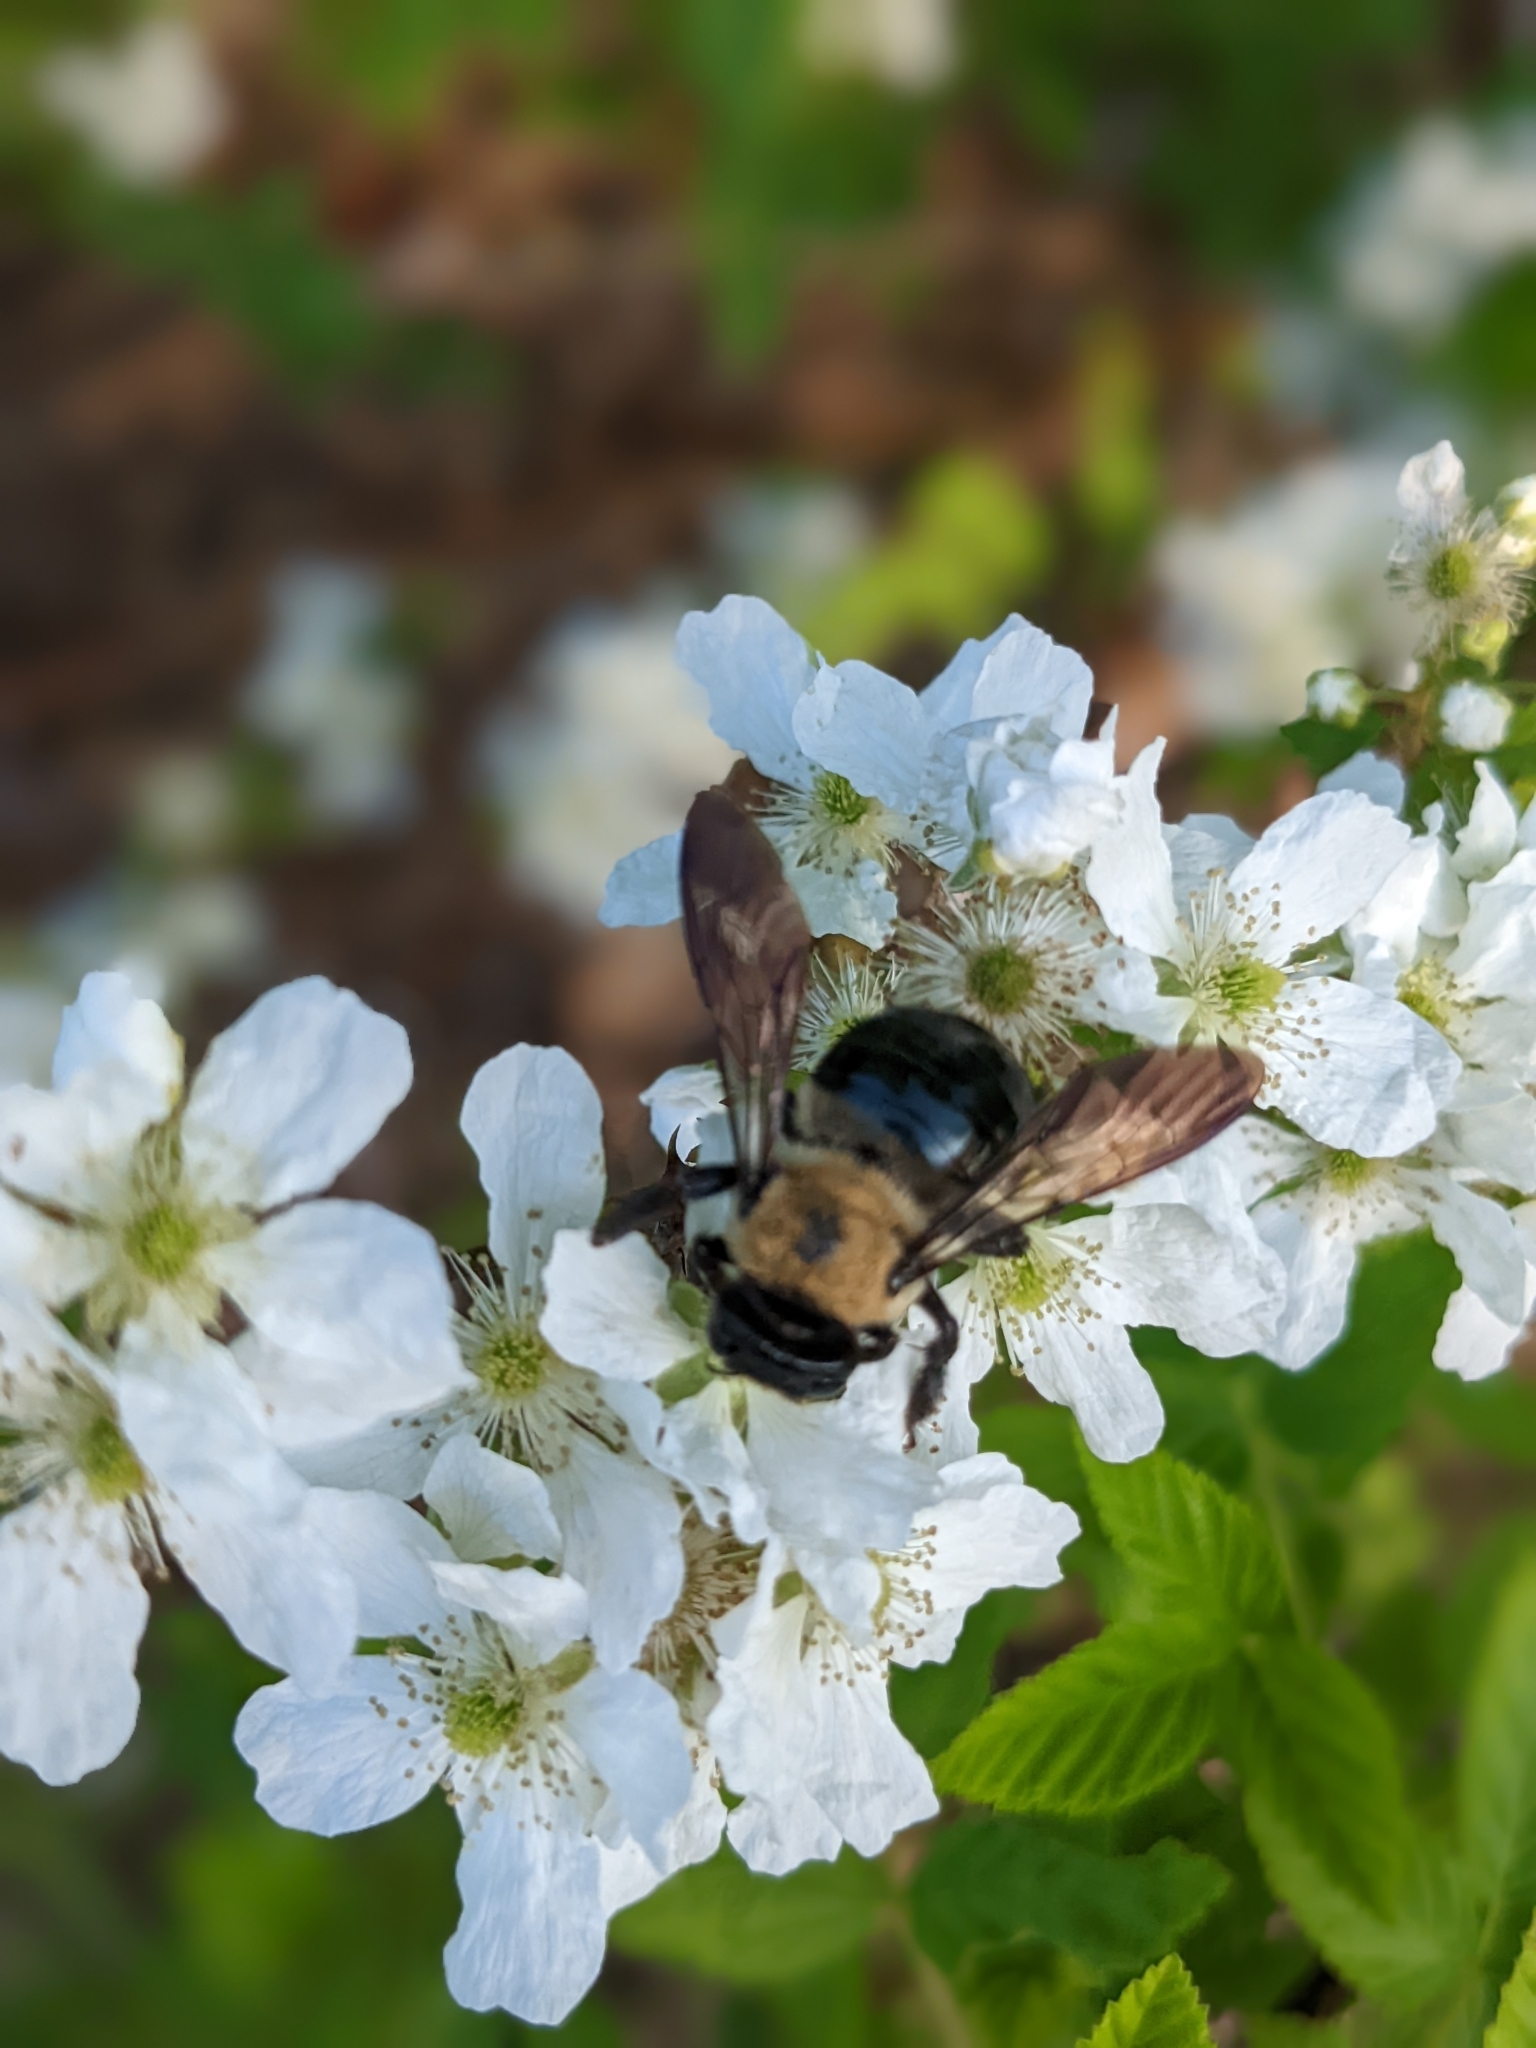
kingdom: Animalia
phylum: Arthropoda
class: Insecta
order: Hymenoptera
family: Apidae
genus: Xylocopa
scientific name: Xylocopa virginica
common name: Carpenter bee
